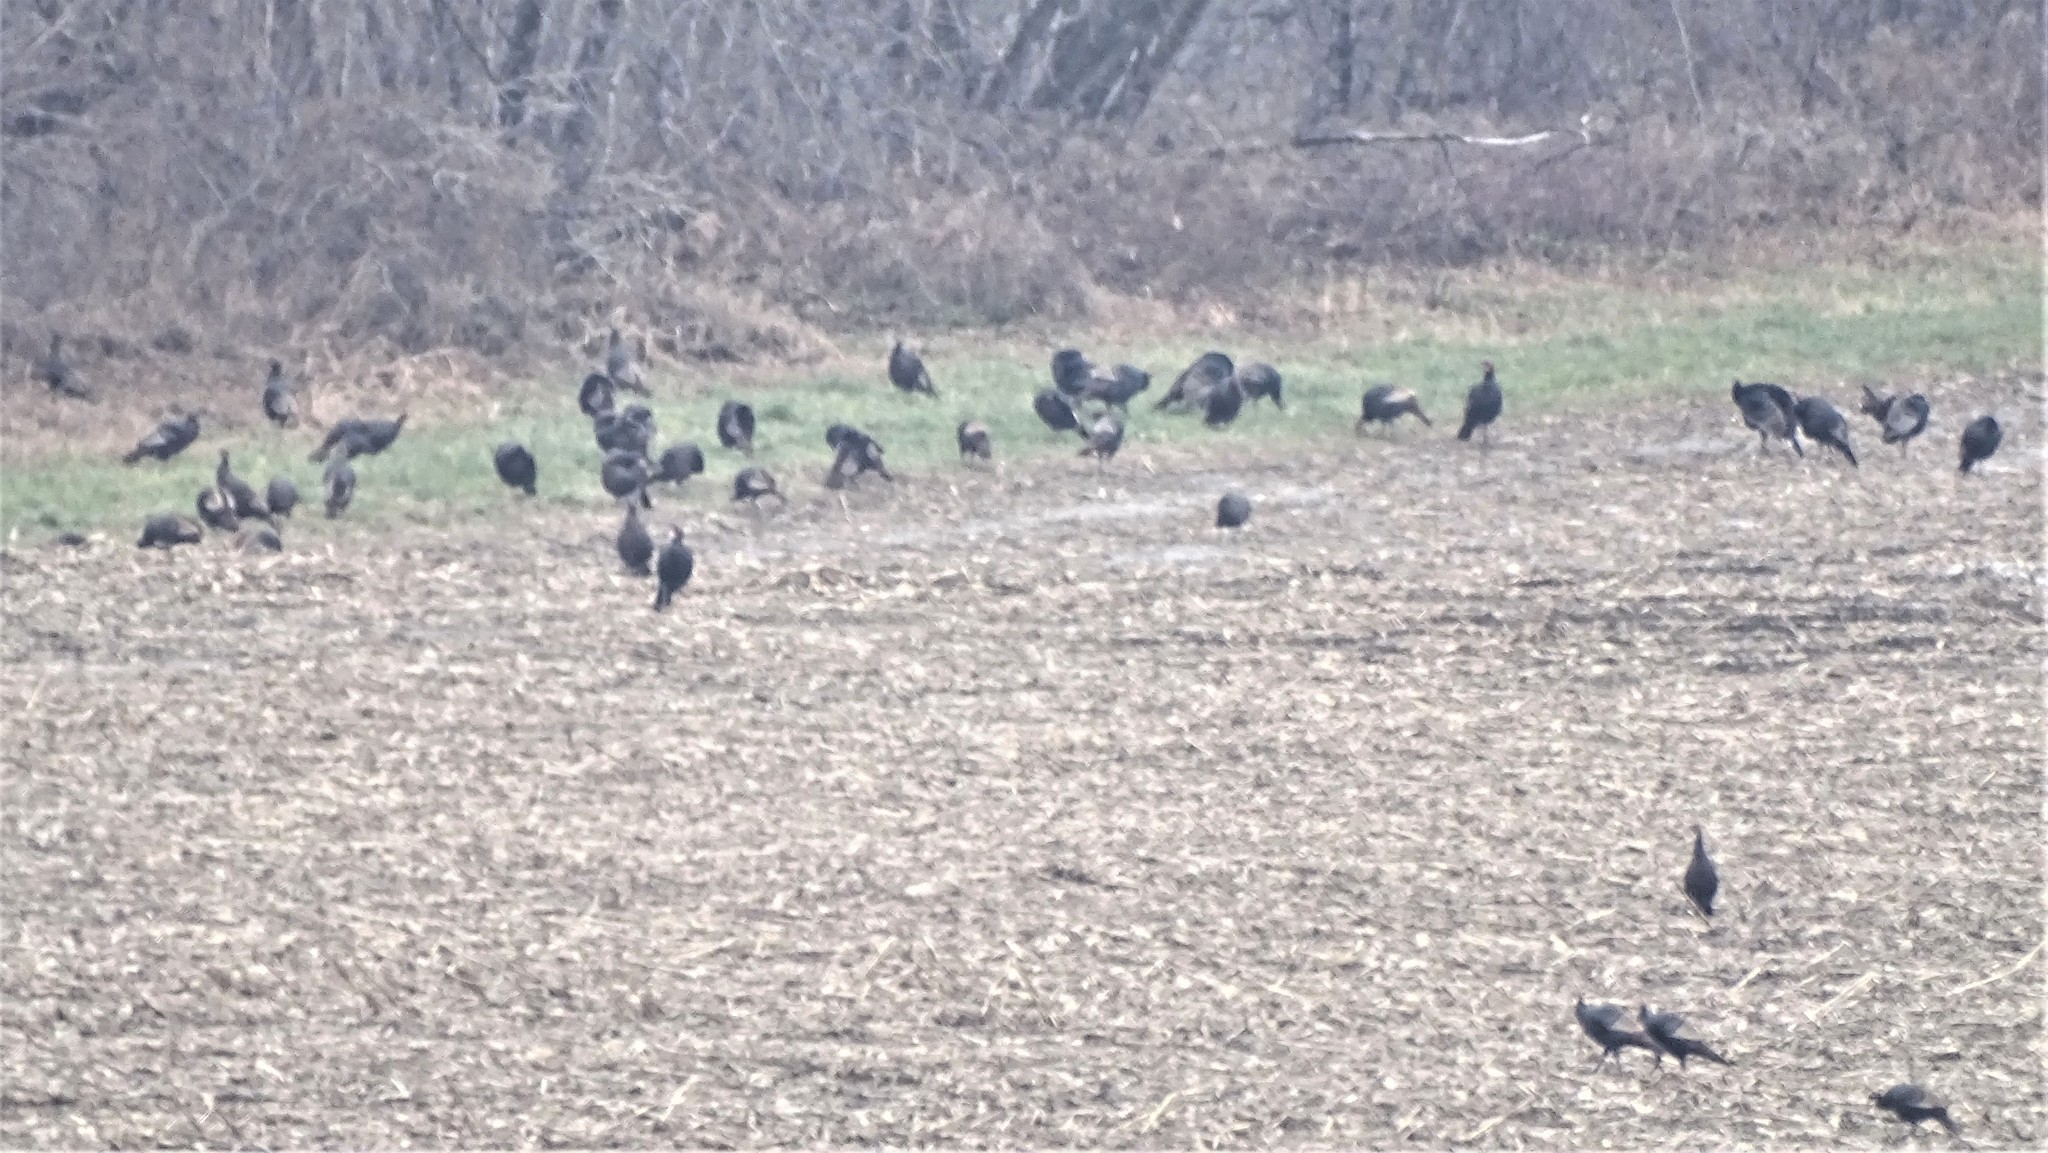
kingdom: Animalia
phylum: Chordata
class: Aves
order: Galliformes
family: Phasianidae
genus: Meleagris
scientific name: Meleagris gallopavo
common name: Wild turkey
